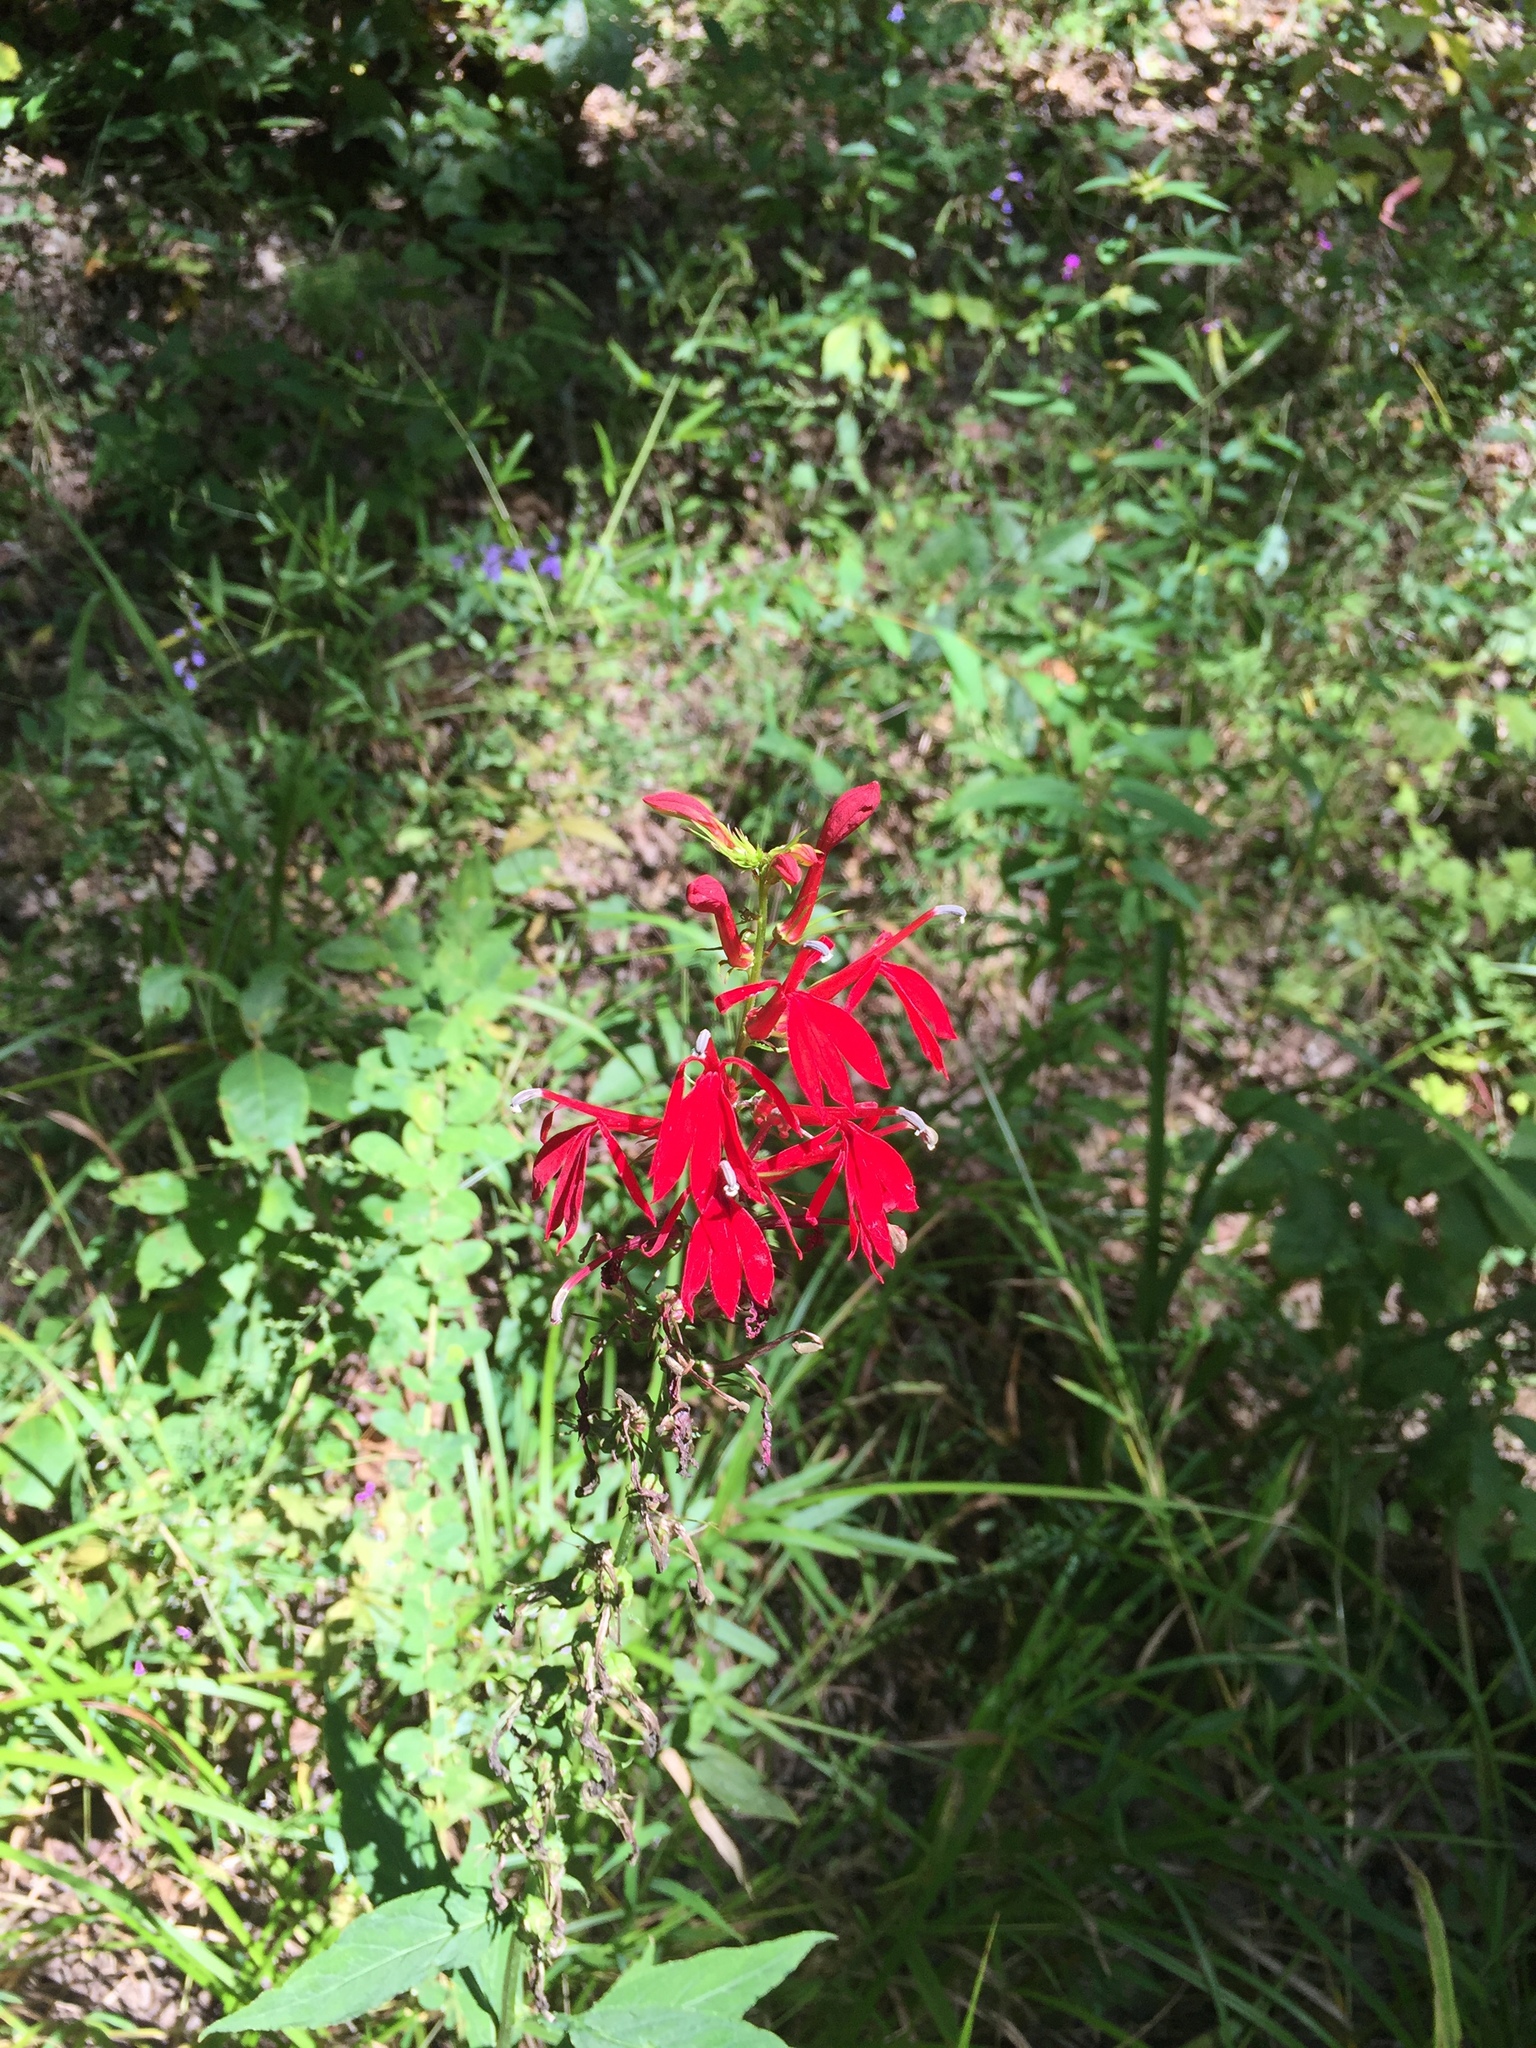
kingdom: Plantae
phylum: Tracheophyta
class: Magnoliopsida
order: Asterales
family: Campanulaceae
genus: Lobelia
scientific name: Lobelia cardinalis
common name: Cardinal flower
